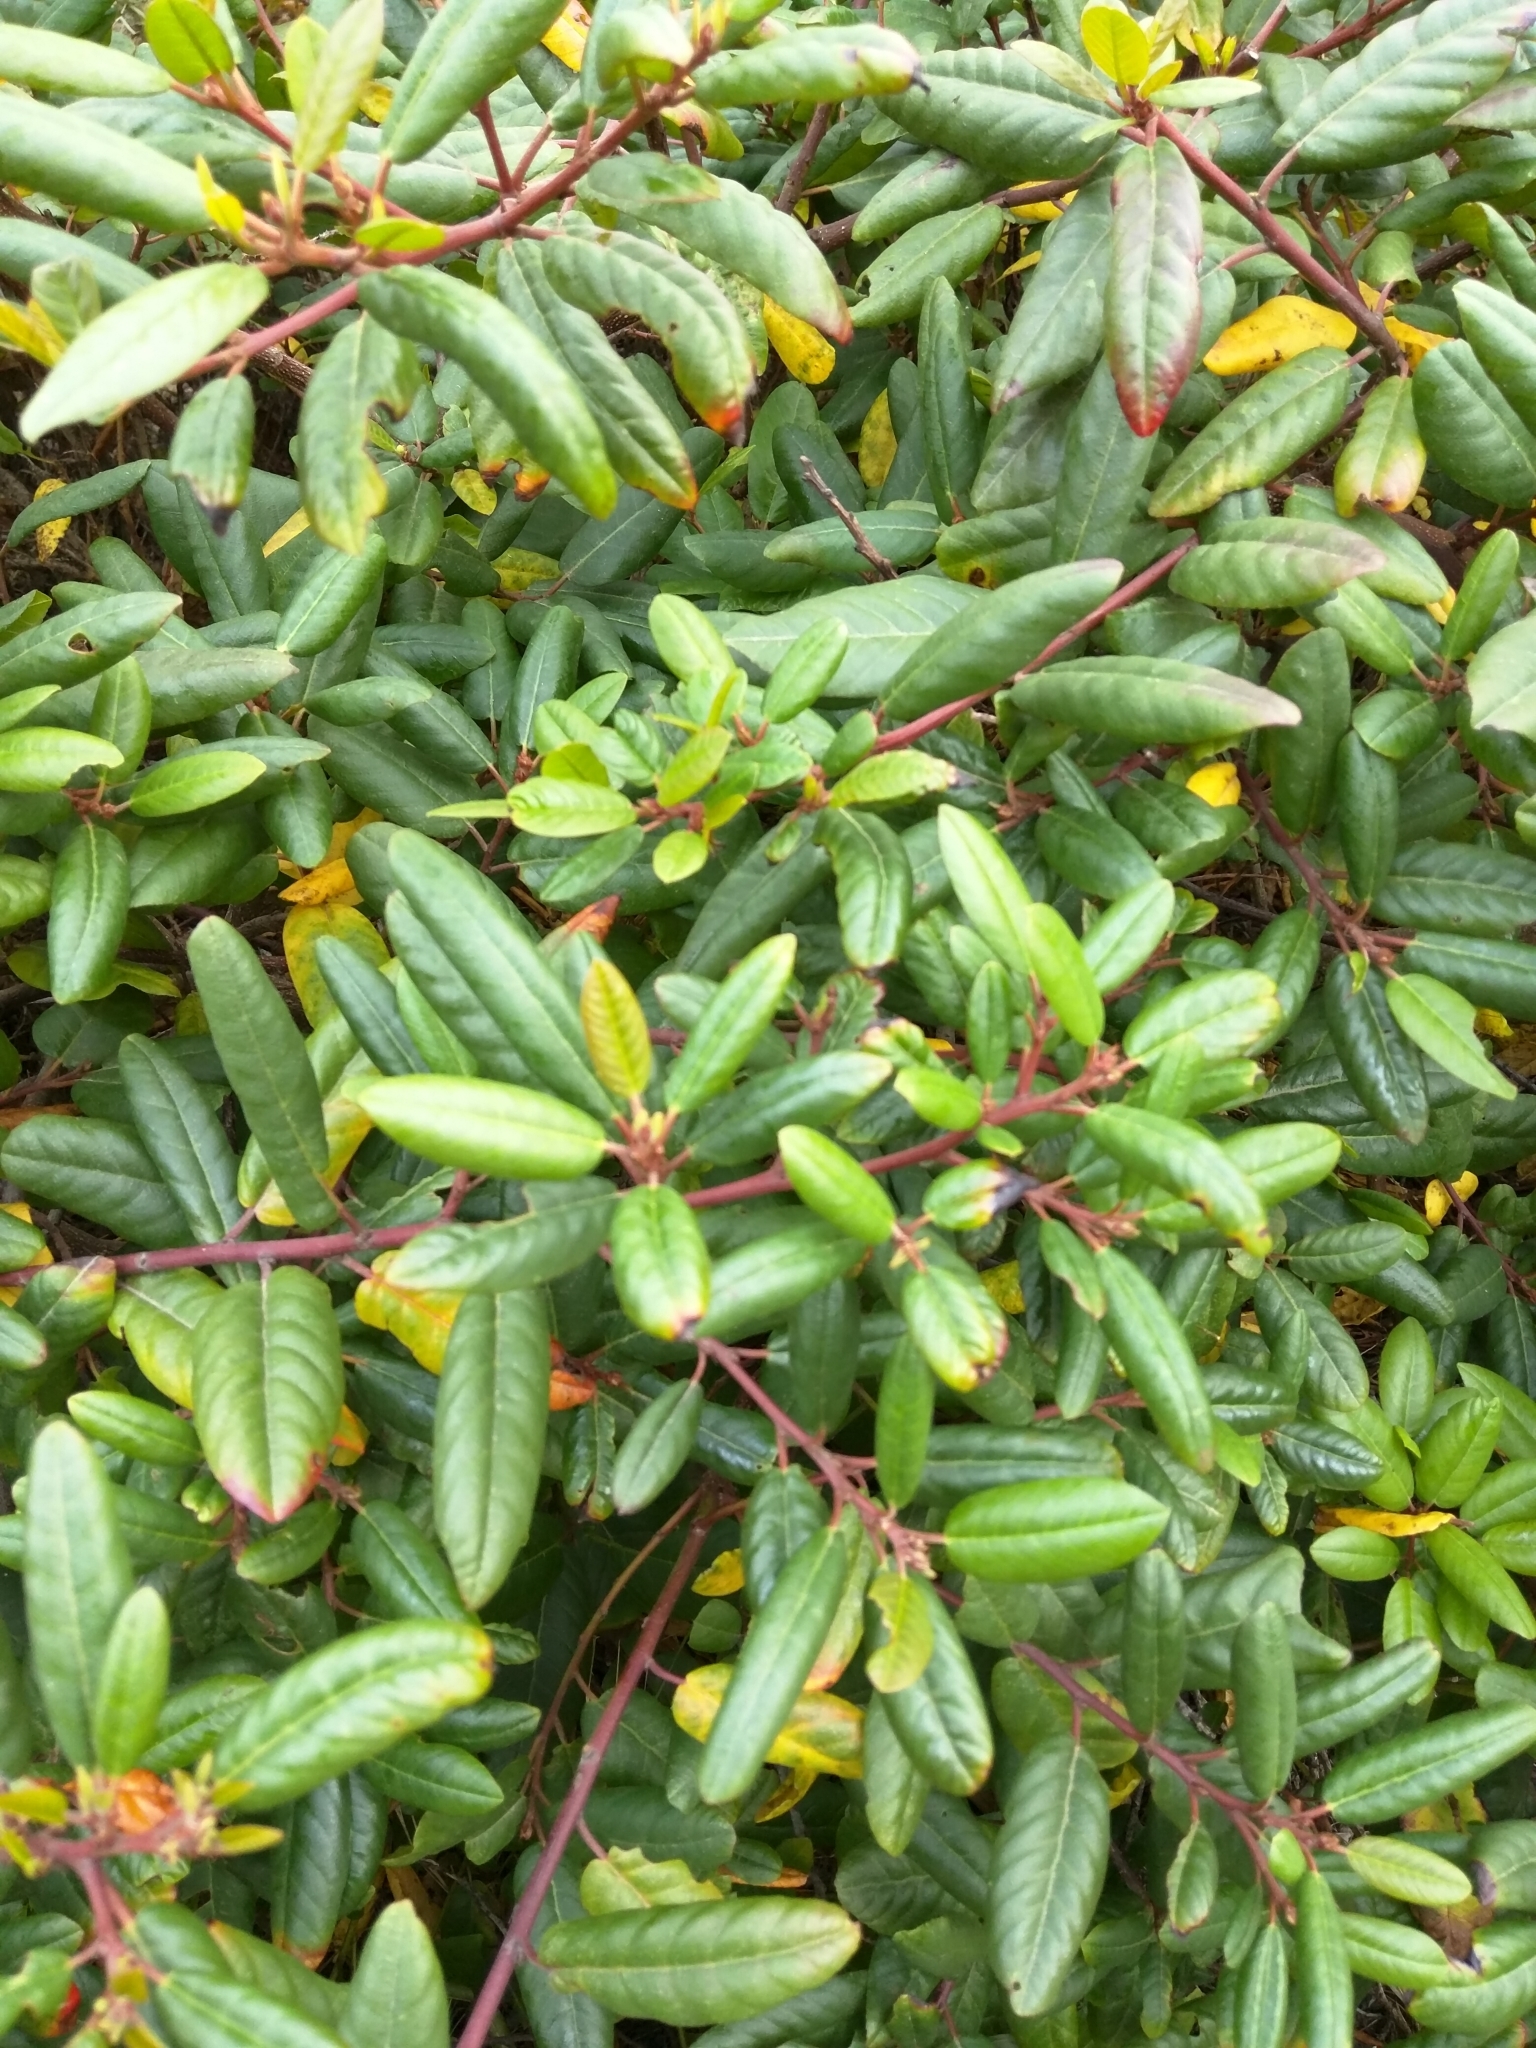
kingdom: Plantae
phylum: Tracheophyta
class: Magnoliopsida
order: Rosales
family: Rhamnaceae
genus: Frangula
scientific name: Frangula californica
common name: California buckthorn
